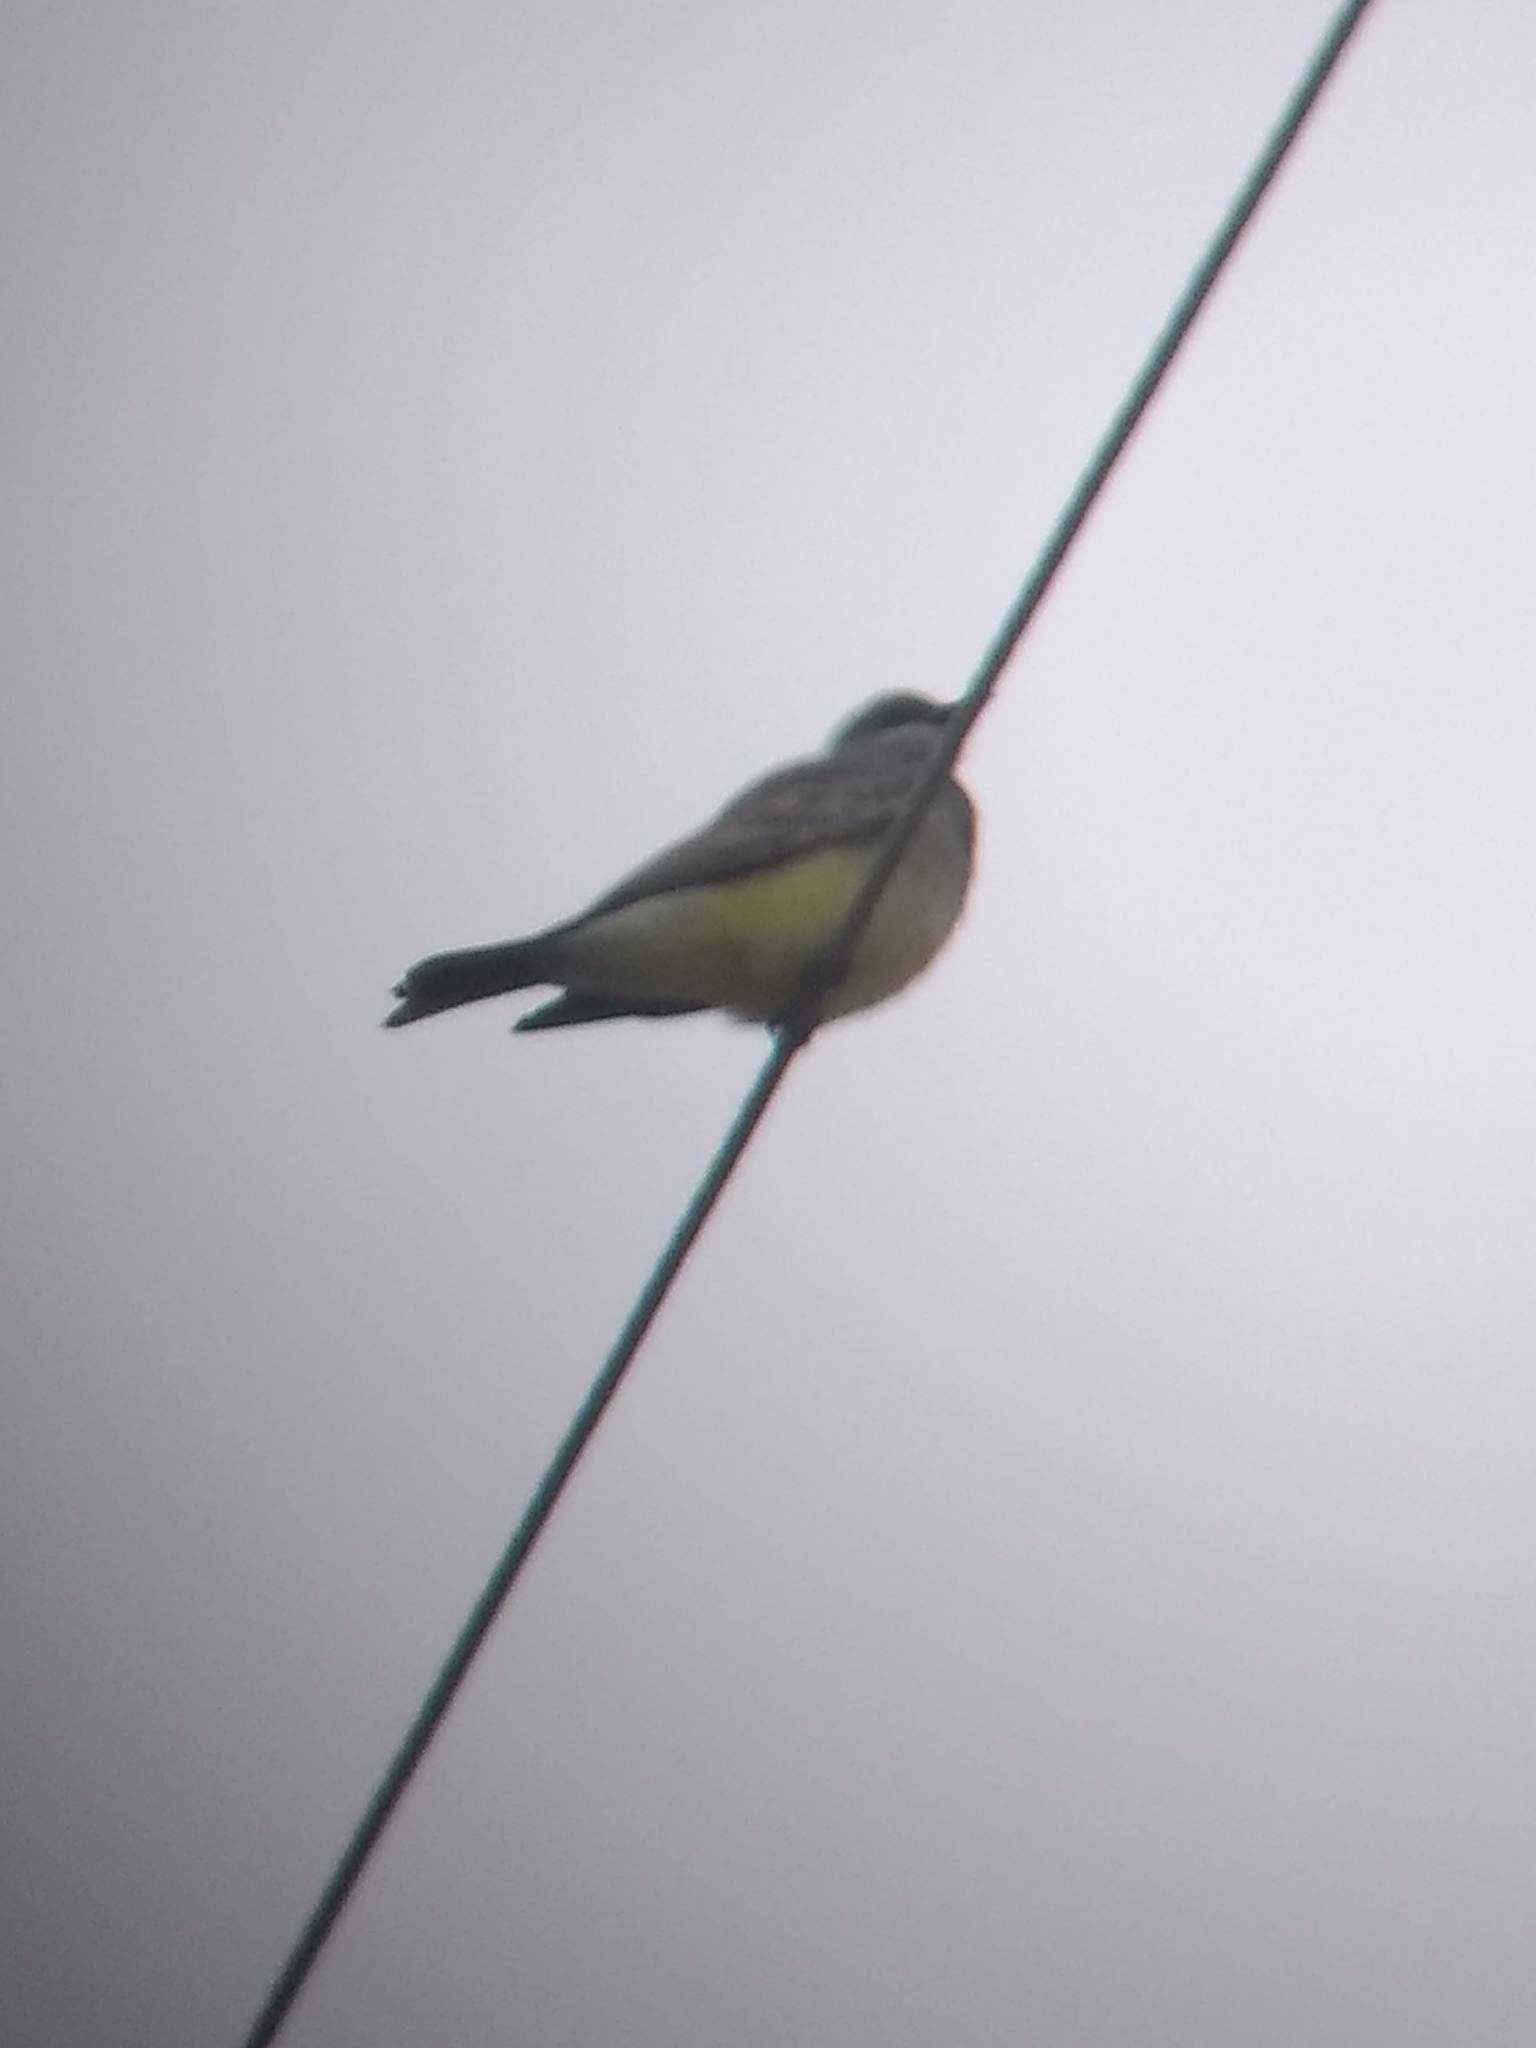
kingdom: Animalia
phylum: Chordata
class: Aves
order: Passeriformes
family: Tyrannidae
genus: Tyrannus
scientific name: Tyrannus vociferans
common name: Cassin's kingbird
